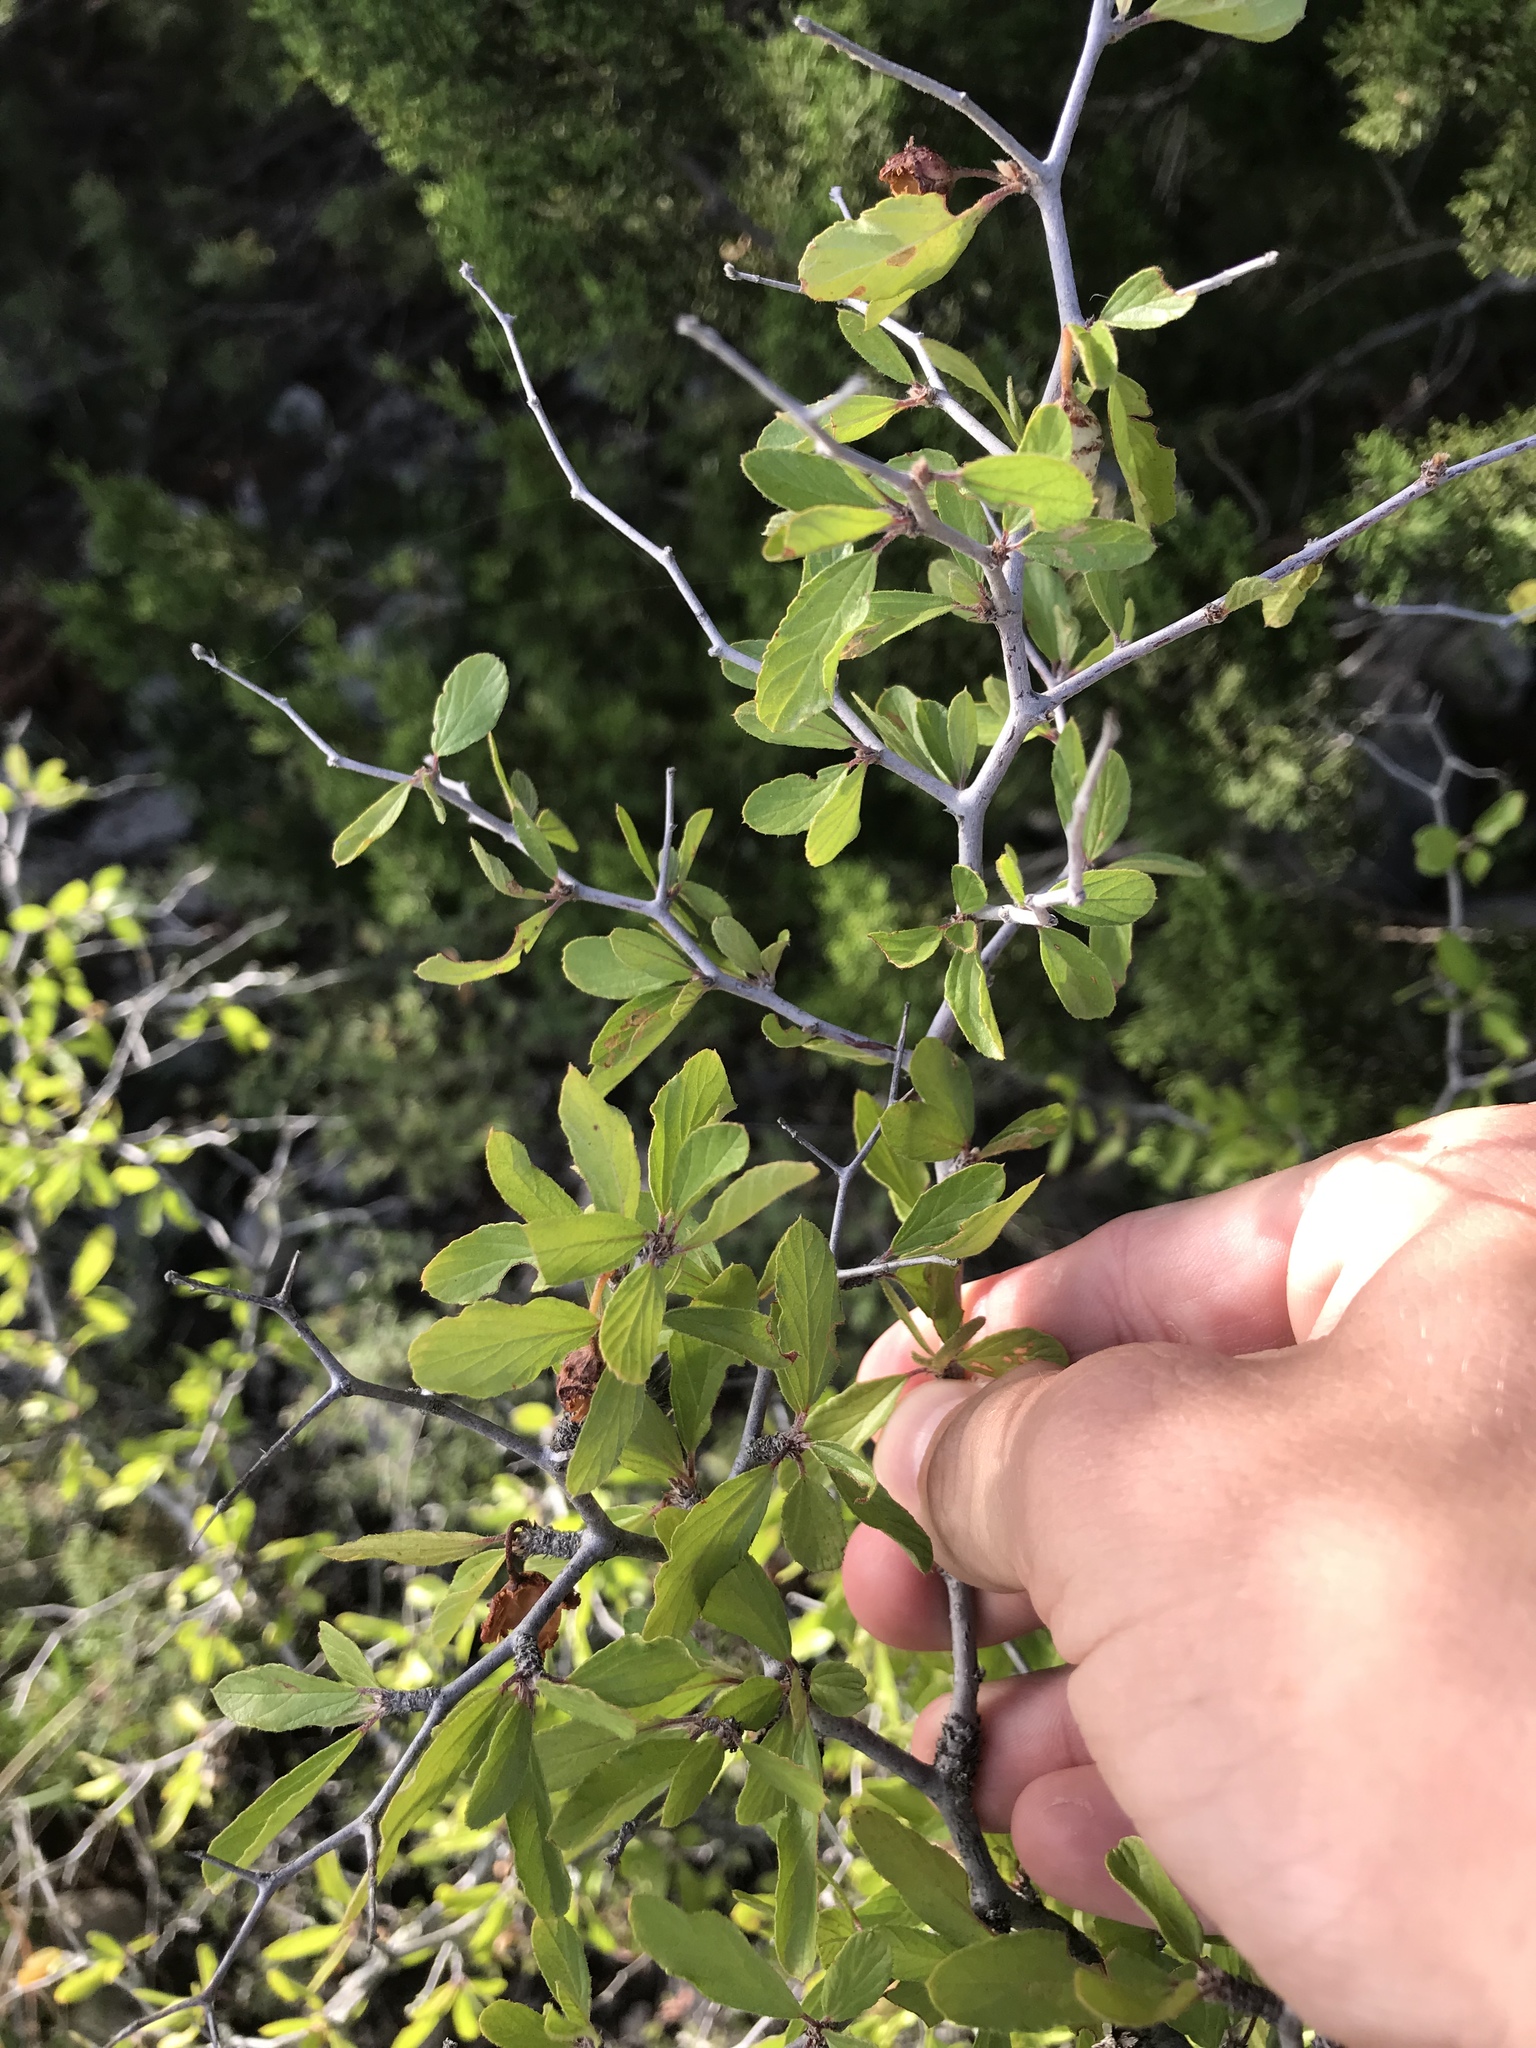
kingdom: Plantae
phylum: Tracheophyta
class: Magnoliopsida
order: Rosales
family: Rhamnaceae
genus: Colubrina
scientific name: Colubrina texensis
